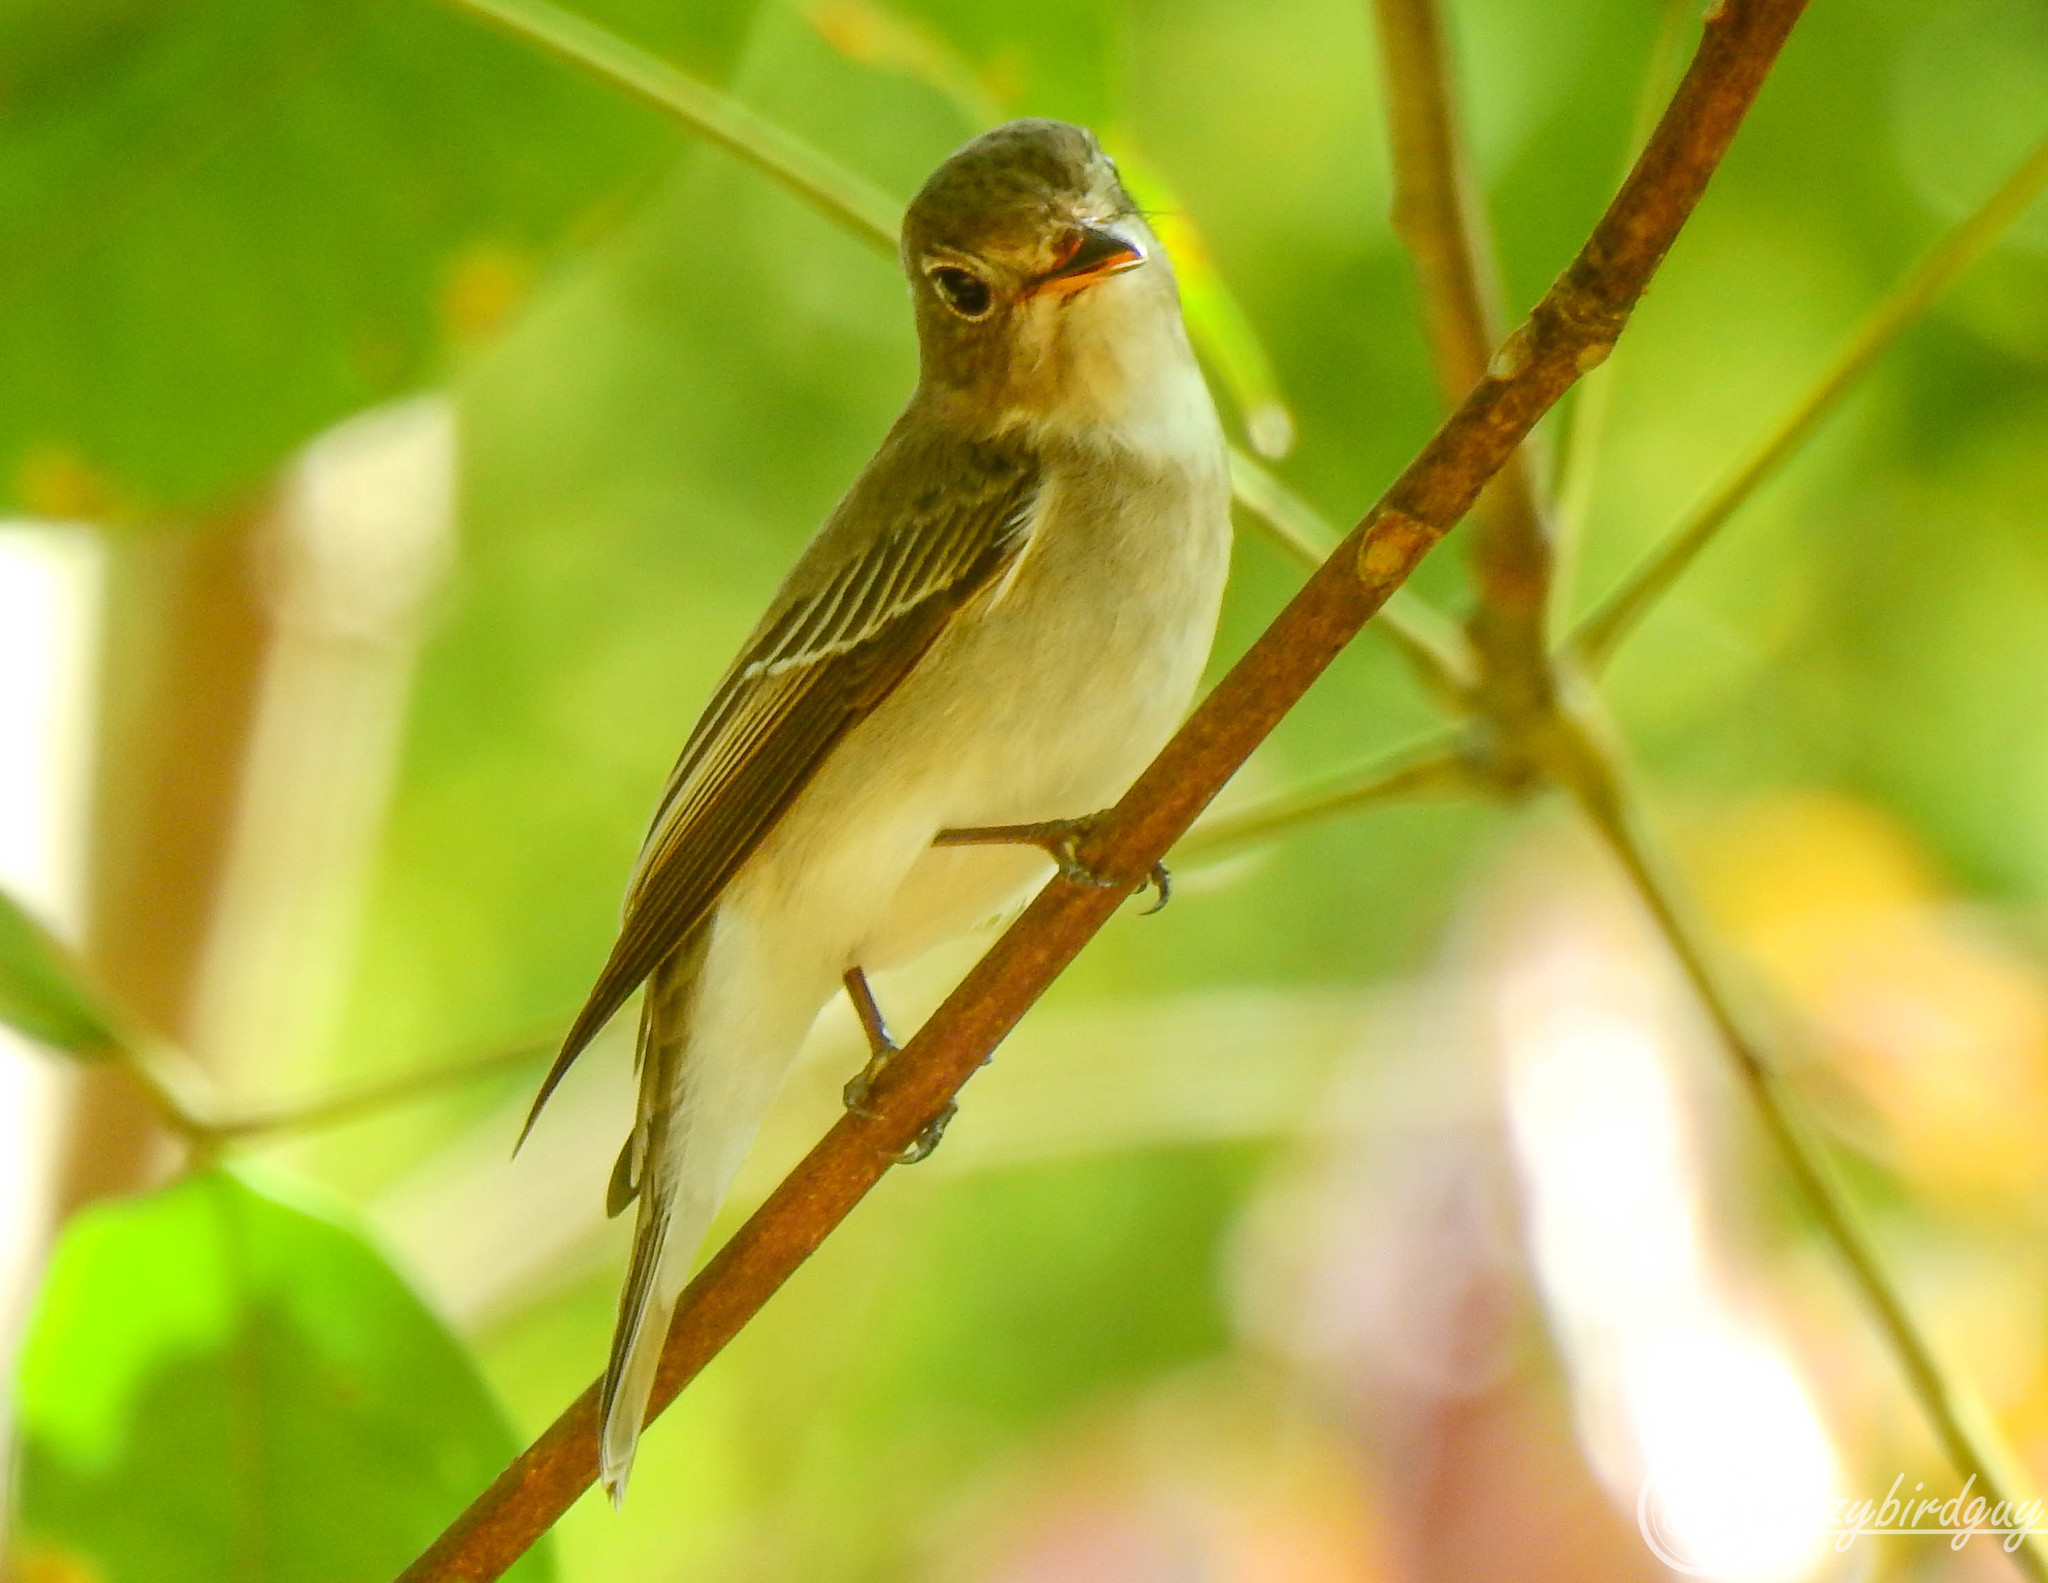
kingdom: Animalia
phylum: Chordata
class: Aves
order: Passeriformes
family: Muscicapidae
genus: Muscicapa
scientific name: Muscicapa latirostris
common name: Asian brown flycatcher
